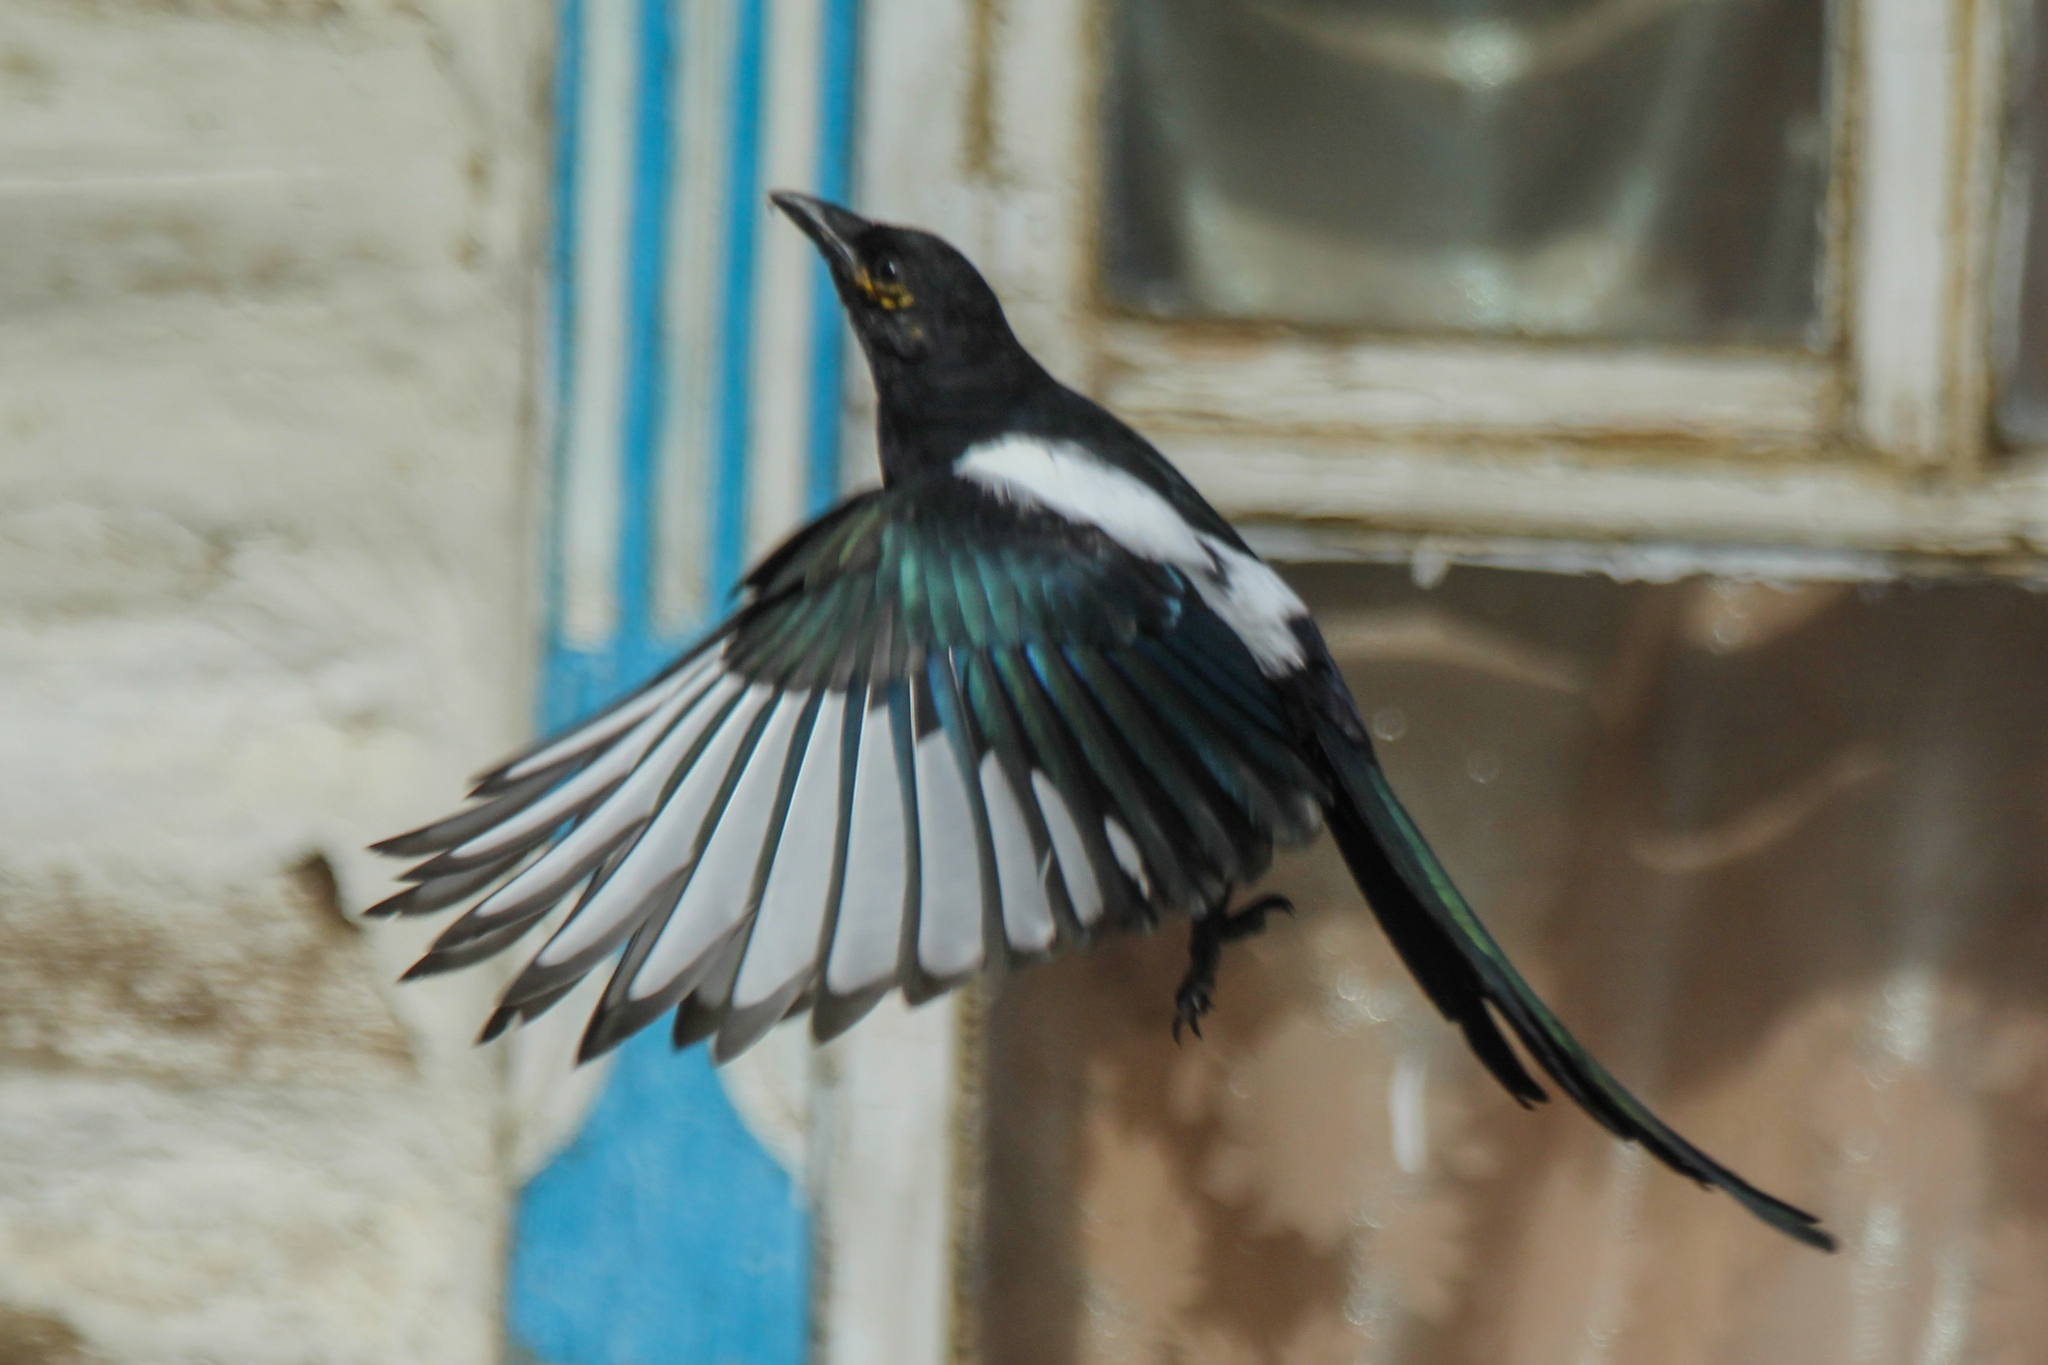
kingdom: Animalia
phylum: Chordata
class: Aves
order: Passeriformes
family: Corvidae
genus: Pica
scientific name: Pica pica
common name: Eurasian magpie
